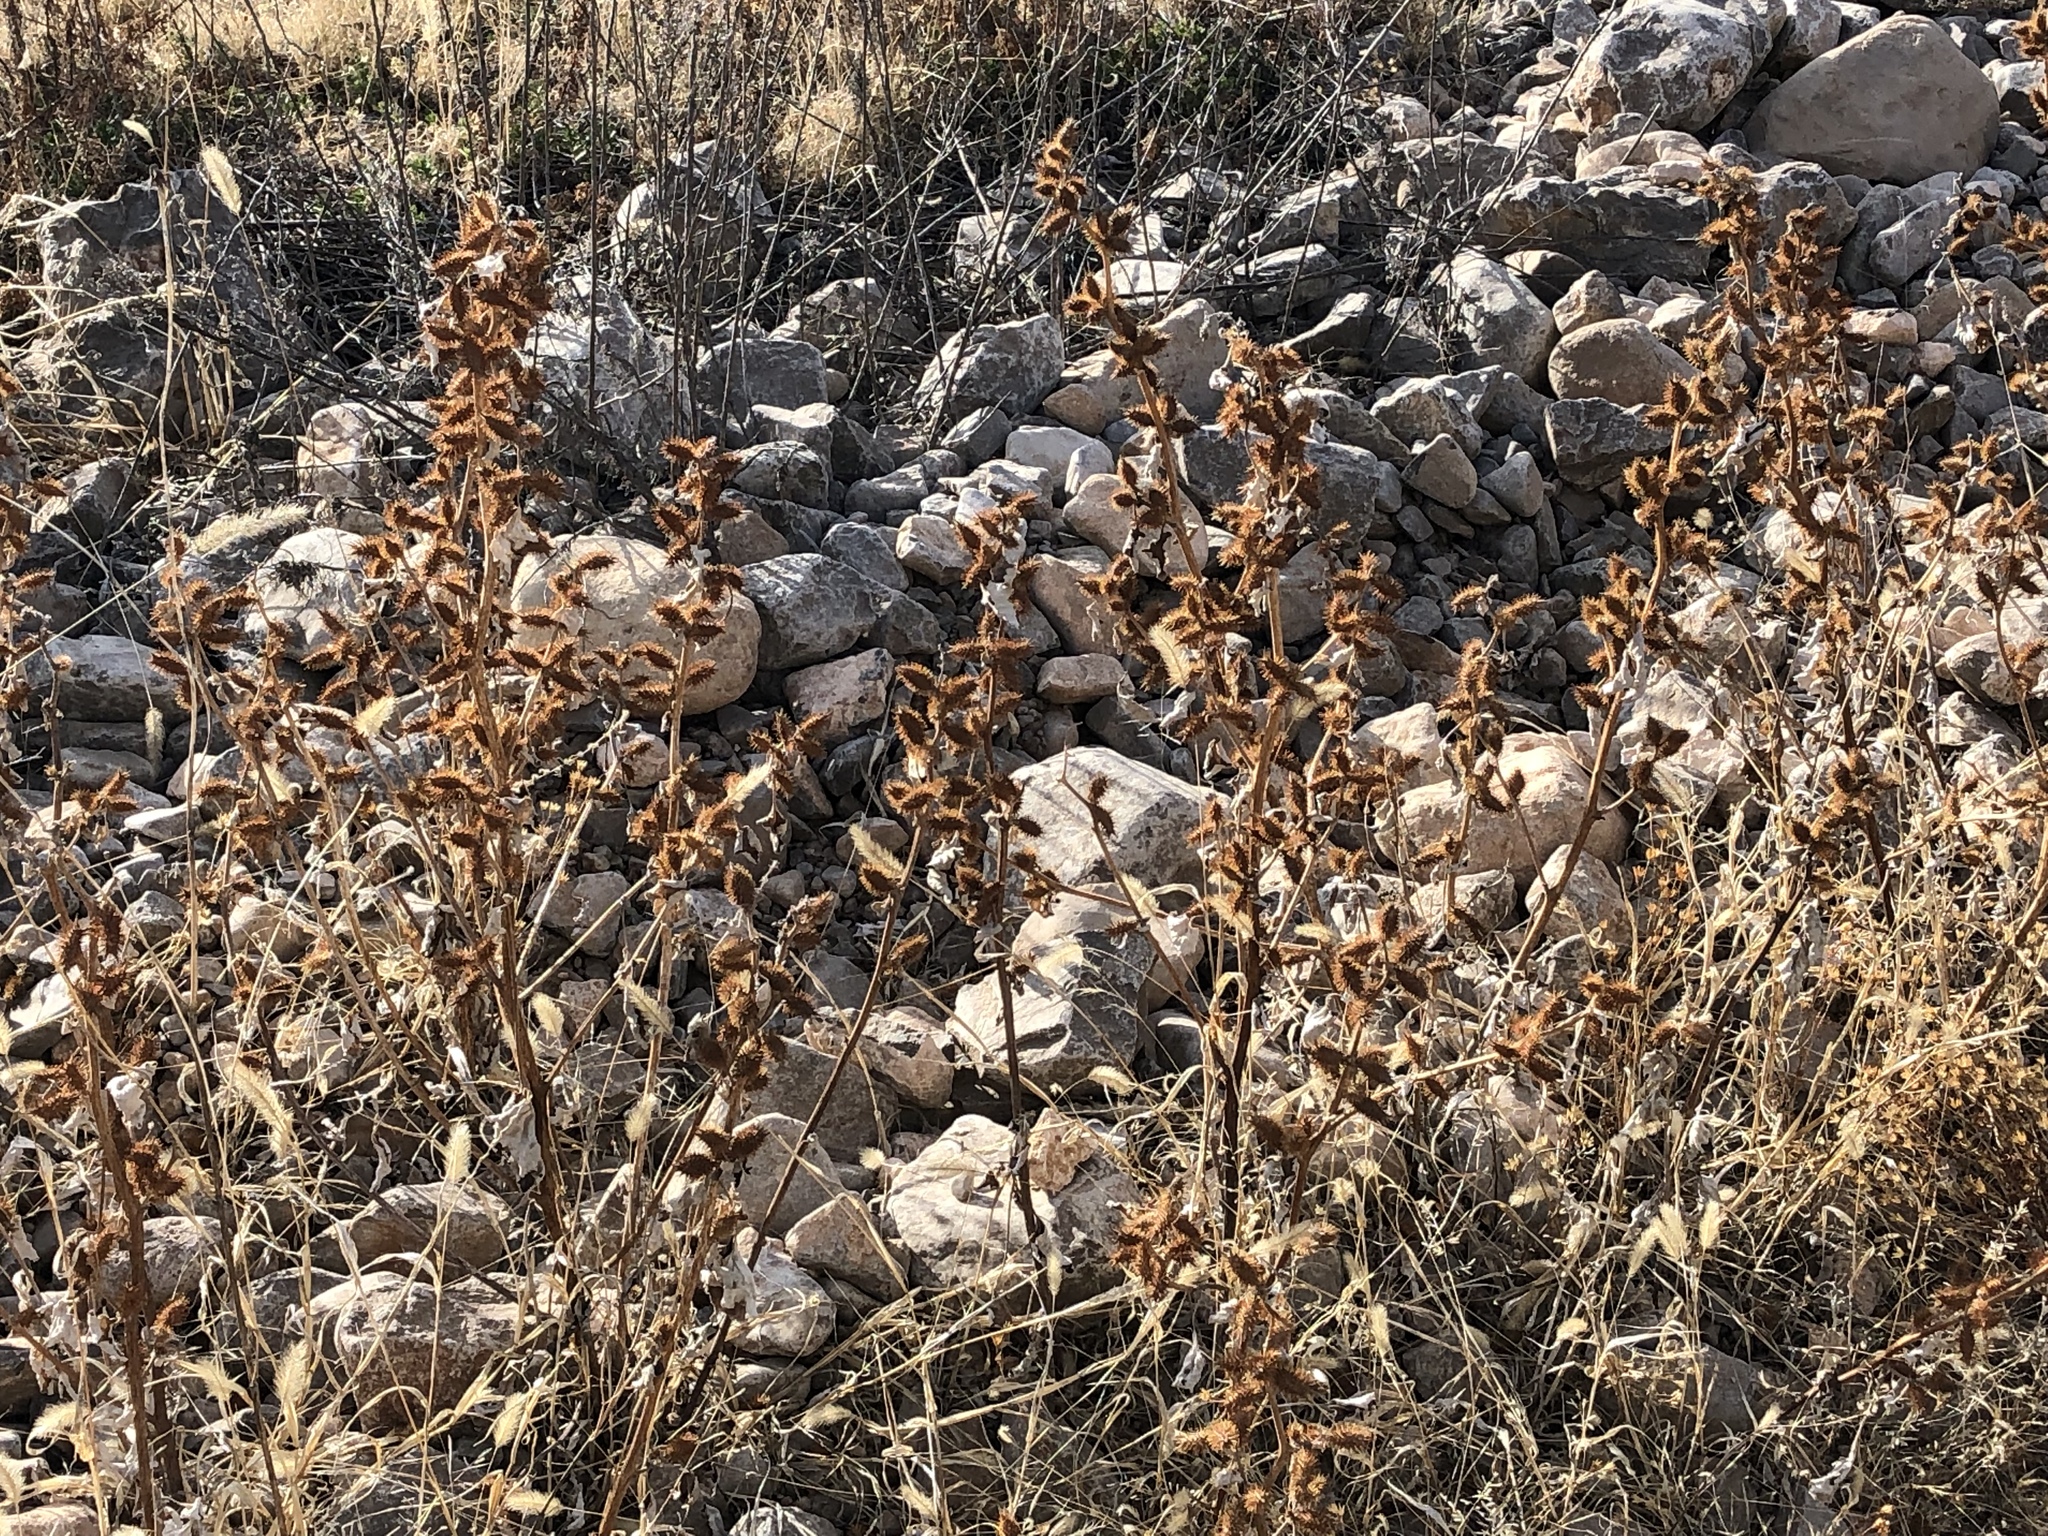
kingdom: Plantae
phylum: Tracheophyta
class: Magnoliopsida
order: Asterales
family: Asteraceae
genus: Xanthium
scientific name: Xanthium strumarium
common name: Rough cocklebur
